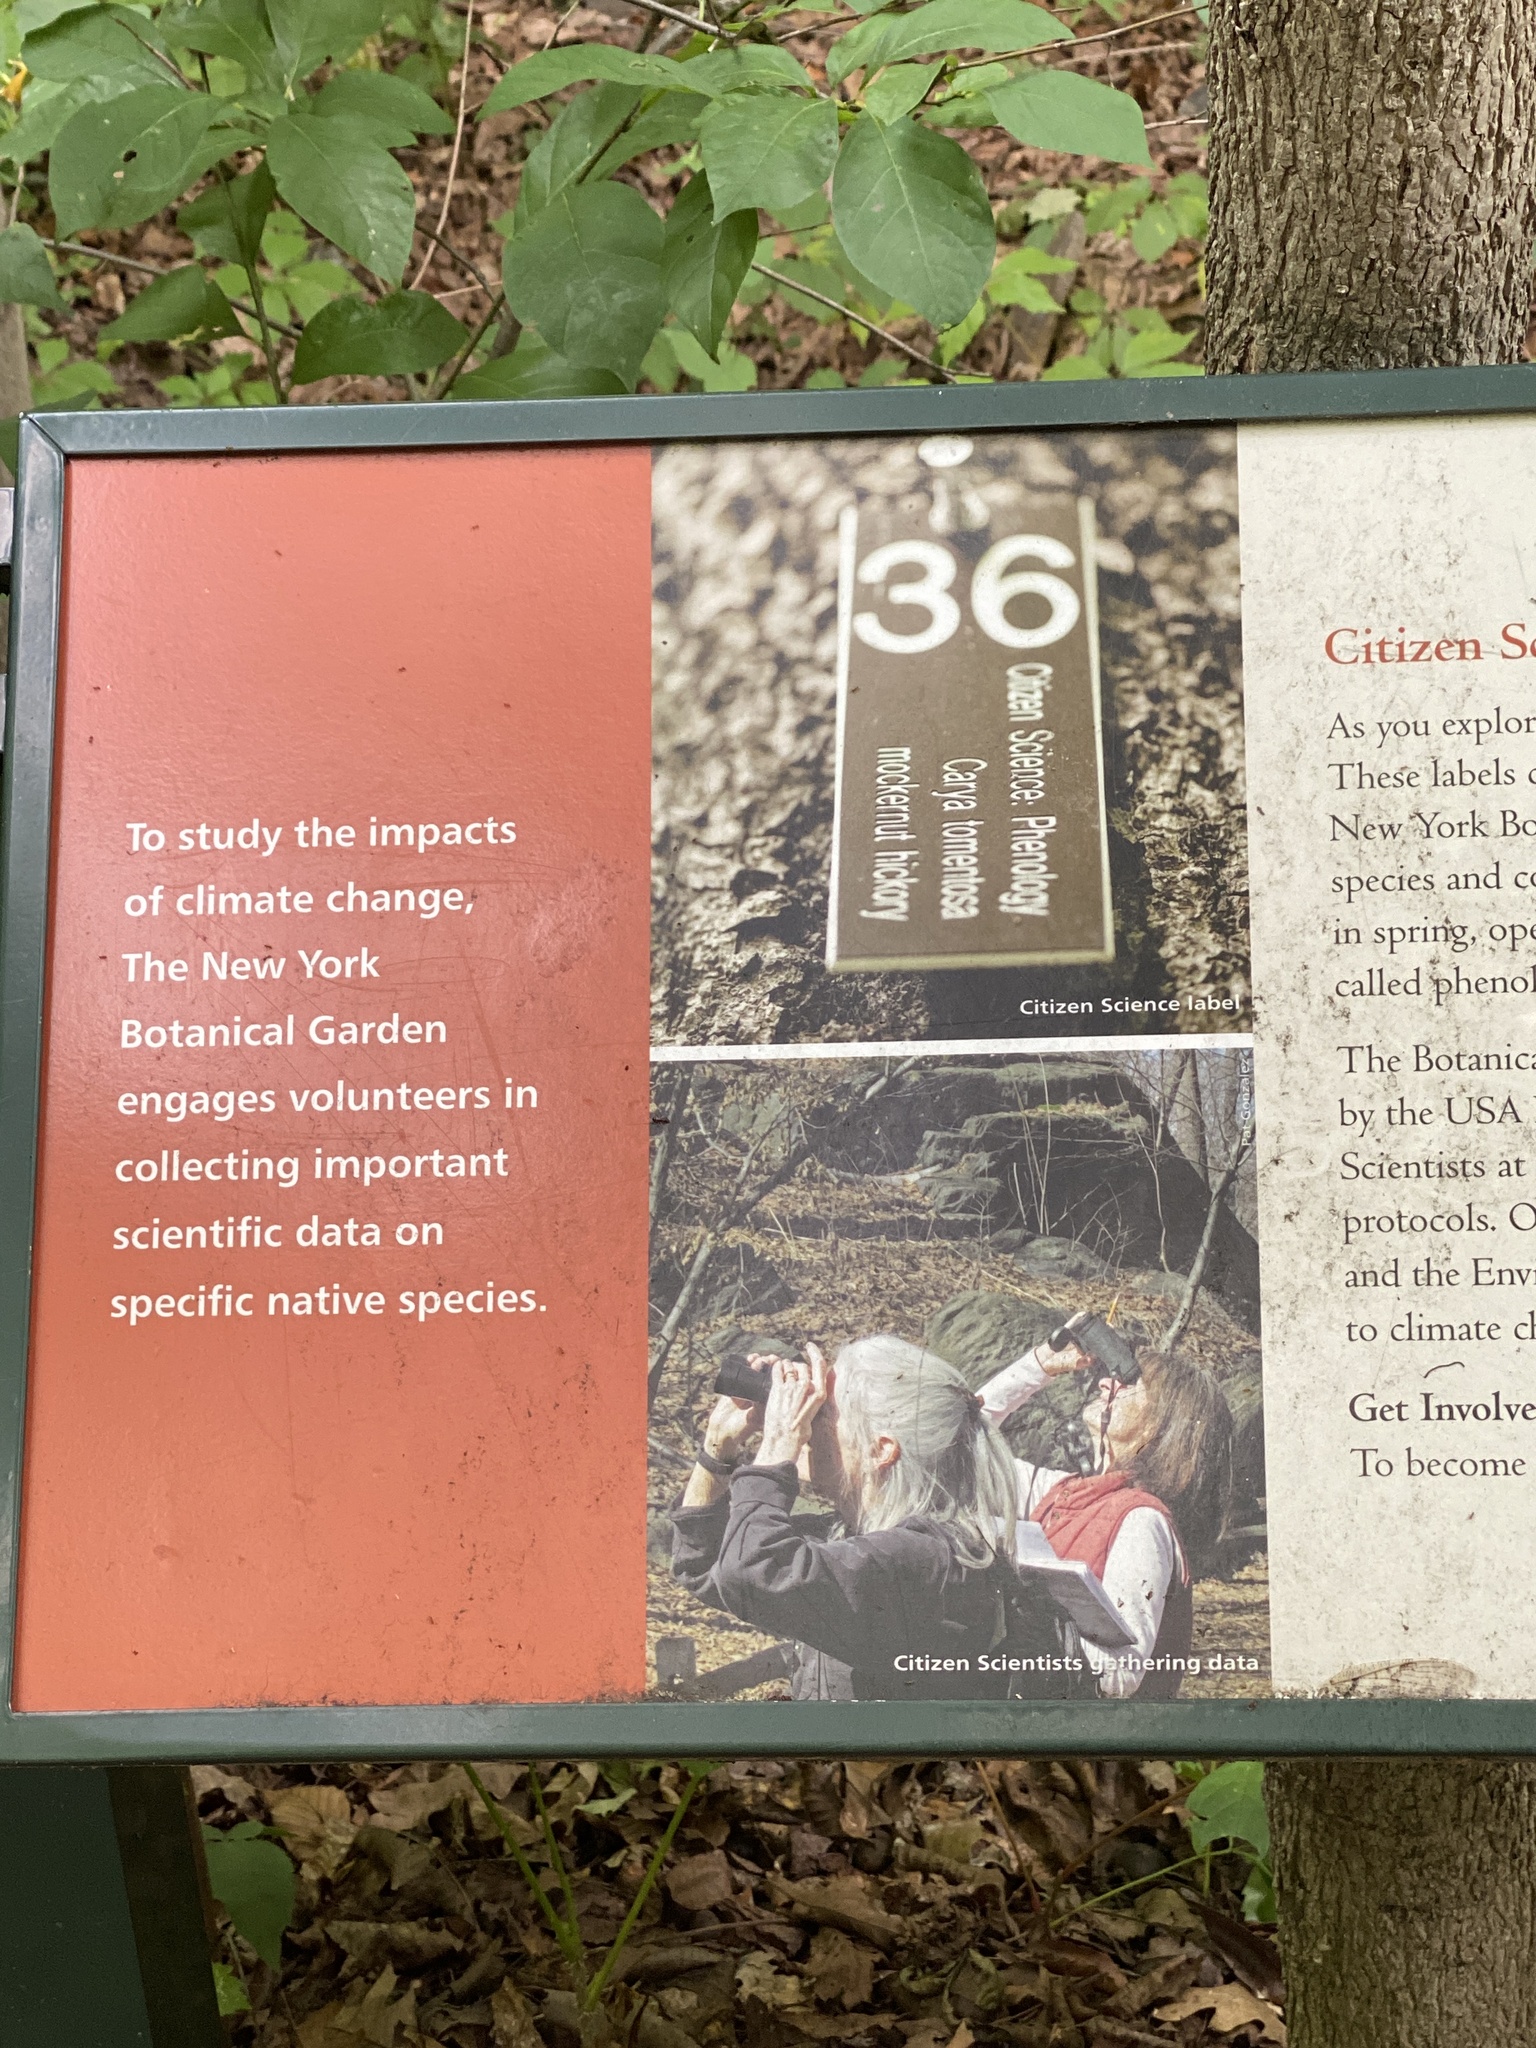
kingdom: Plantae
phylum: Tracheophyta
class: Magnoliopsida
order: Rosales
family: Rosaceae
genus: Geum
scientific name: Geum canadense
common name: White avens
